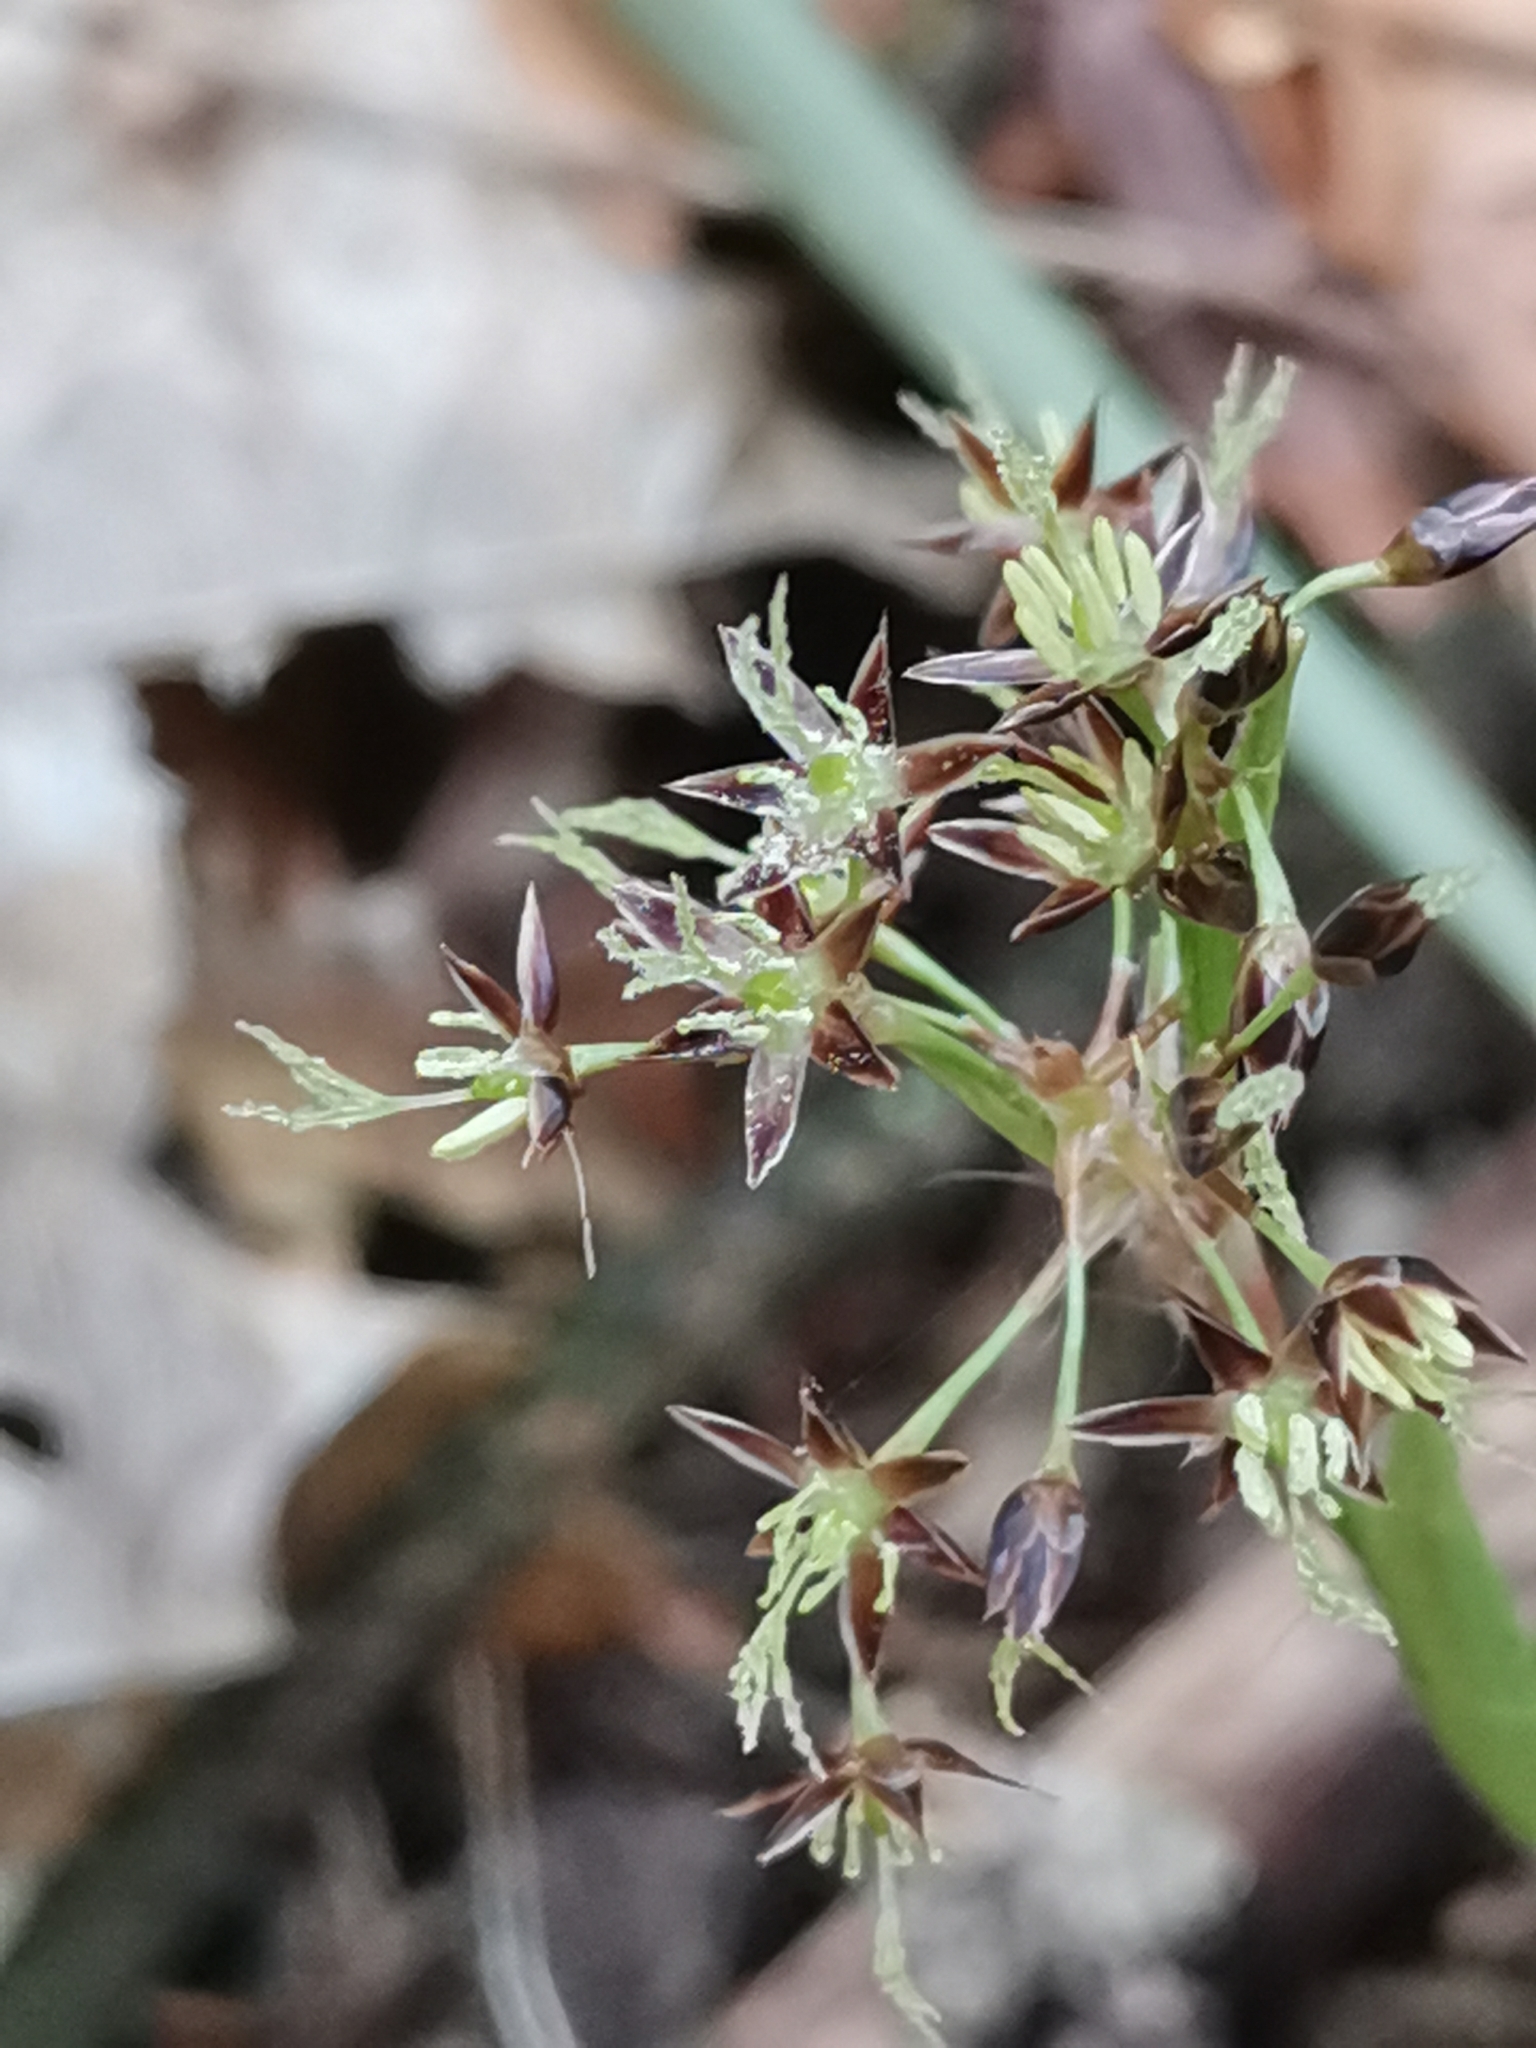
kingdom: Plantae
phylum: Tracheophyta
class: Liliopsida
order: Poales
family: Juncaceae
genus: Luzula
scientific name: Luzula pilosa
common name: Hairy wood-rush
